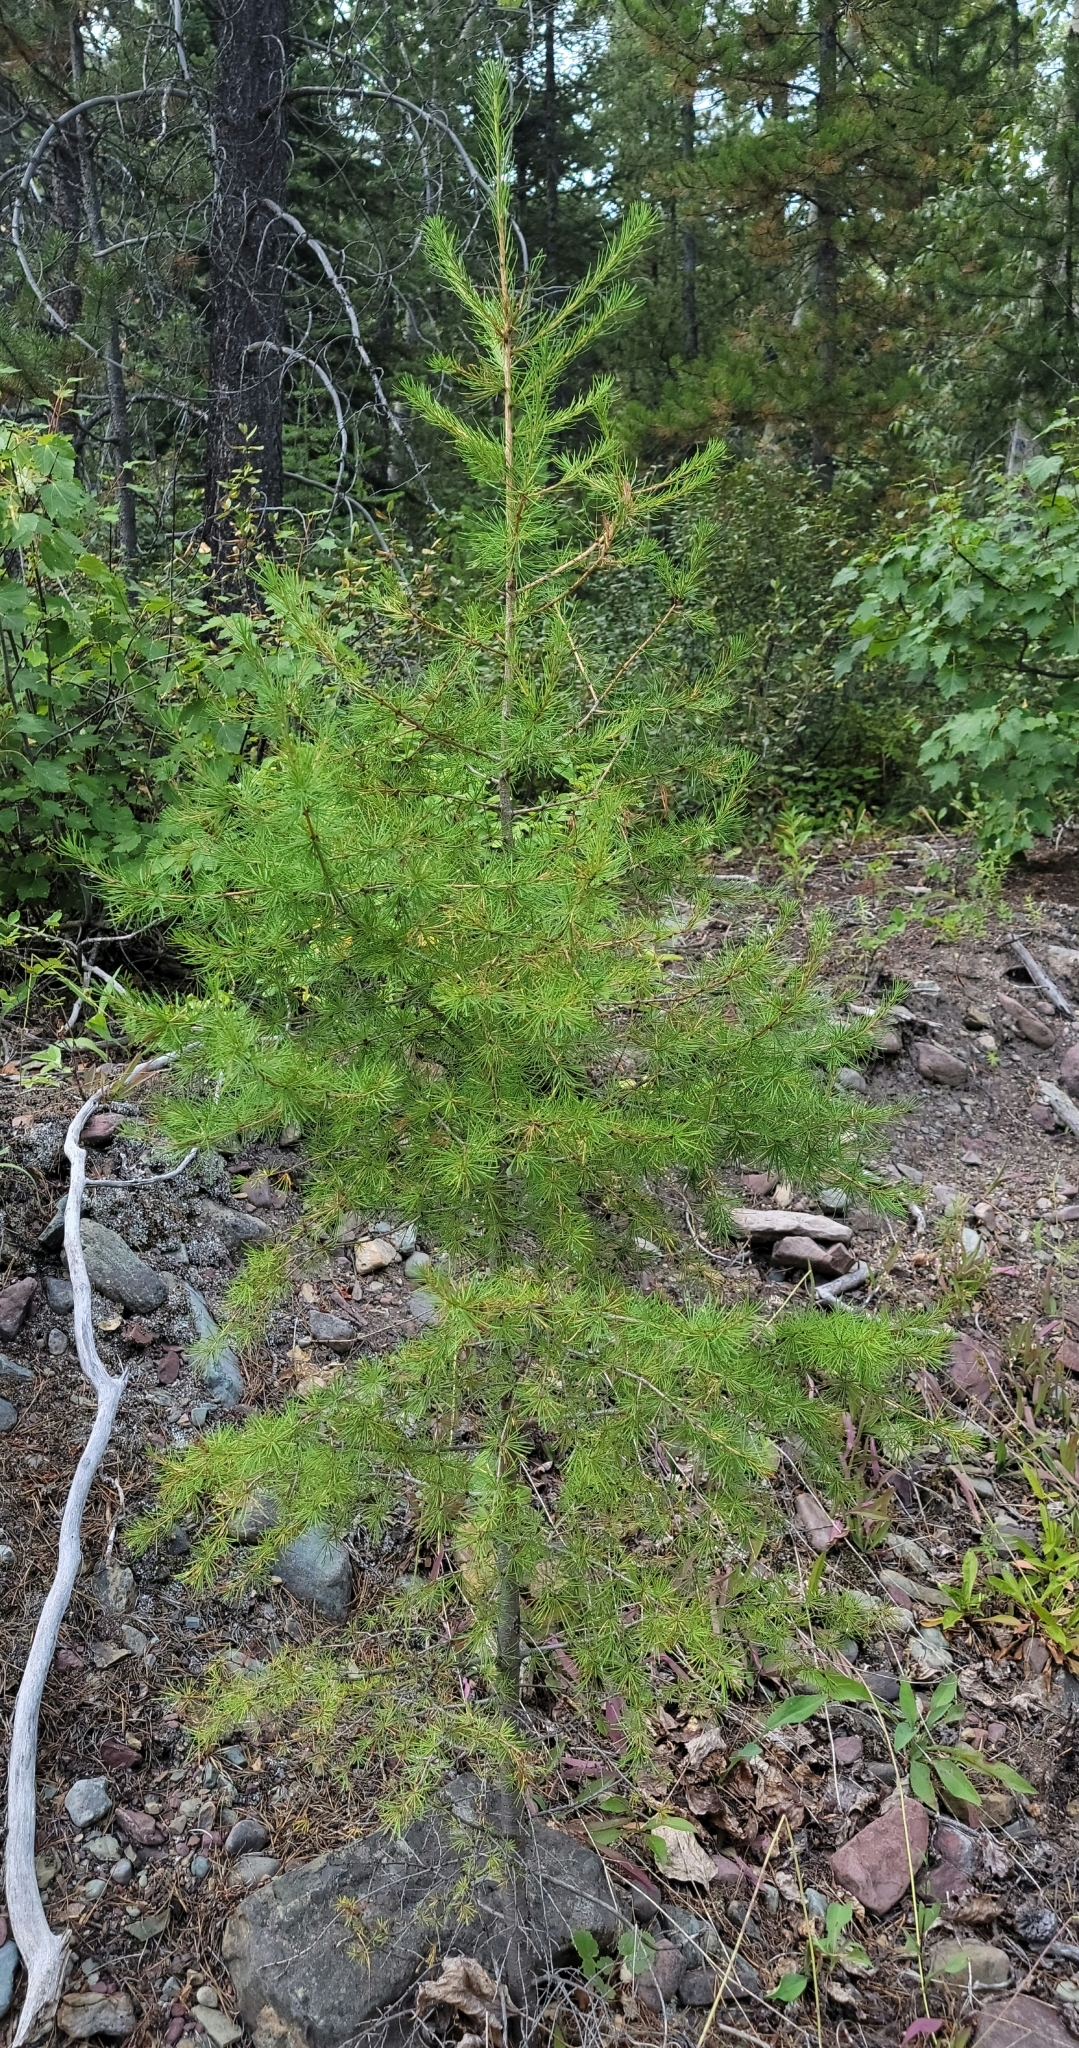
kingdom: Plantae
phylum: Tracheophyta
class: Pinopsida
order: Pinales
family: Pinaceae
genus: Larix
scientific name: Larix occidentalis
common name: Western larch
